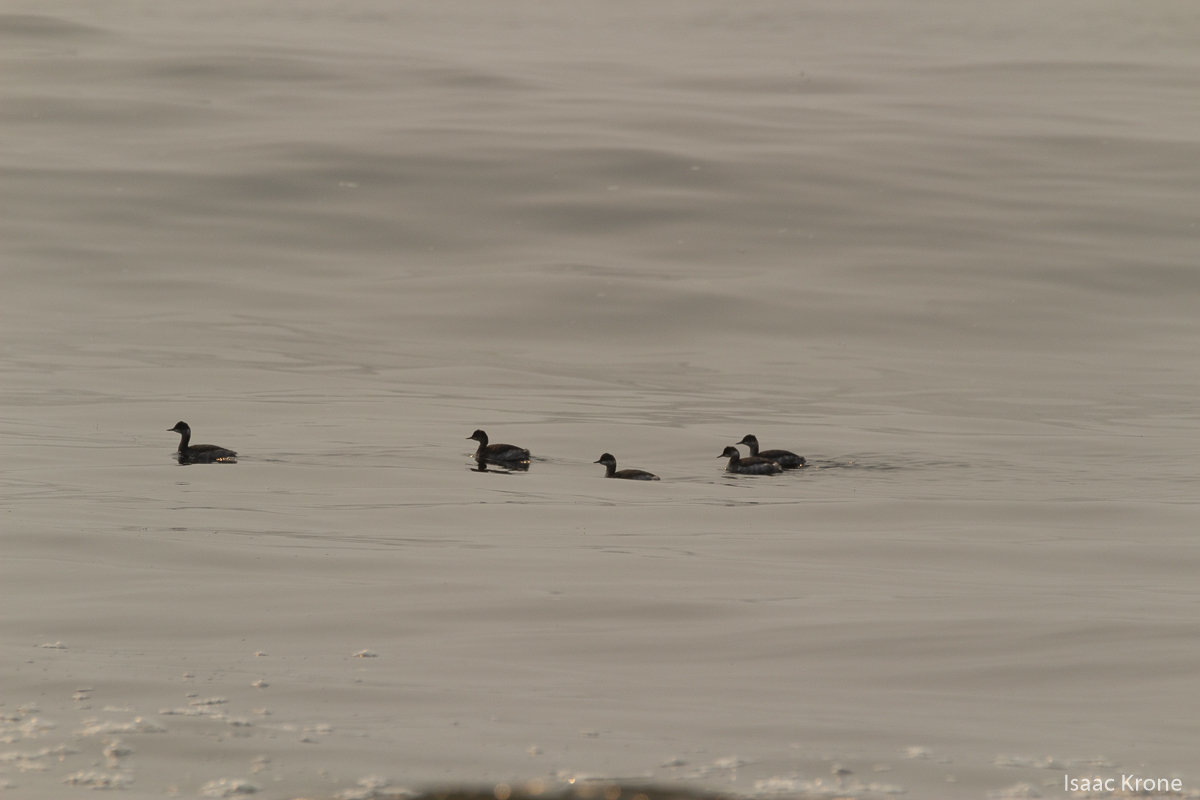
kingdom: Animalia
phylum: Chordata
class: Aves
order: Podicipediformes
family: Podicipedidae
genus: Podiceps
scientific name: Podiceps auritus
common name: Horned grebe
